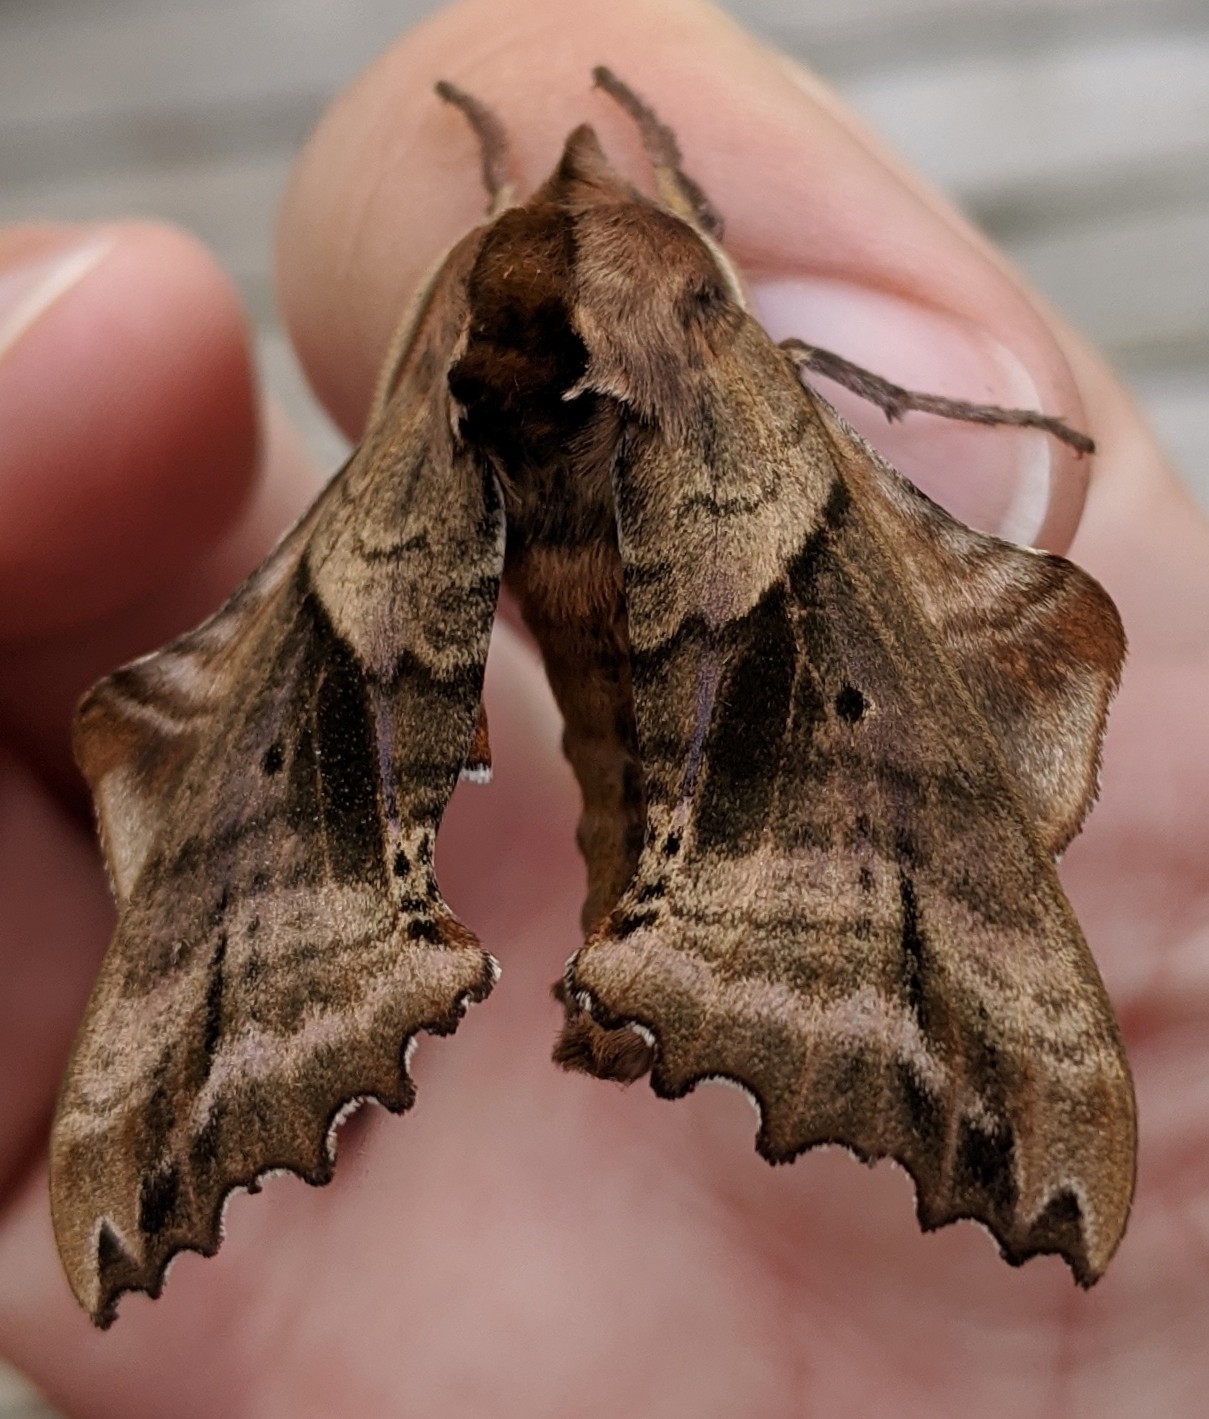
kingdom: Animalia
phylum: Arthropoda
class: Insecta
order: Lepidoptera
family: Sphingidae
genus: Paonias
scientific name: Paonias excaecata
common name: Blind-eyed sphinx
